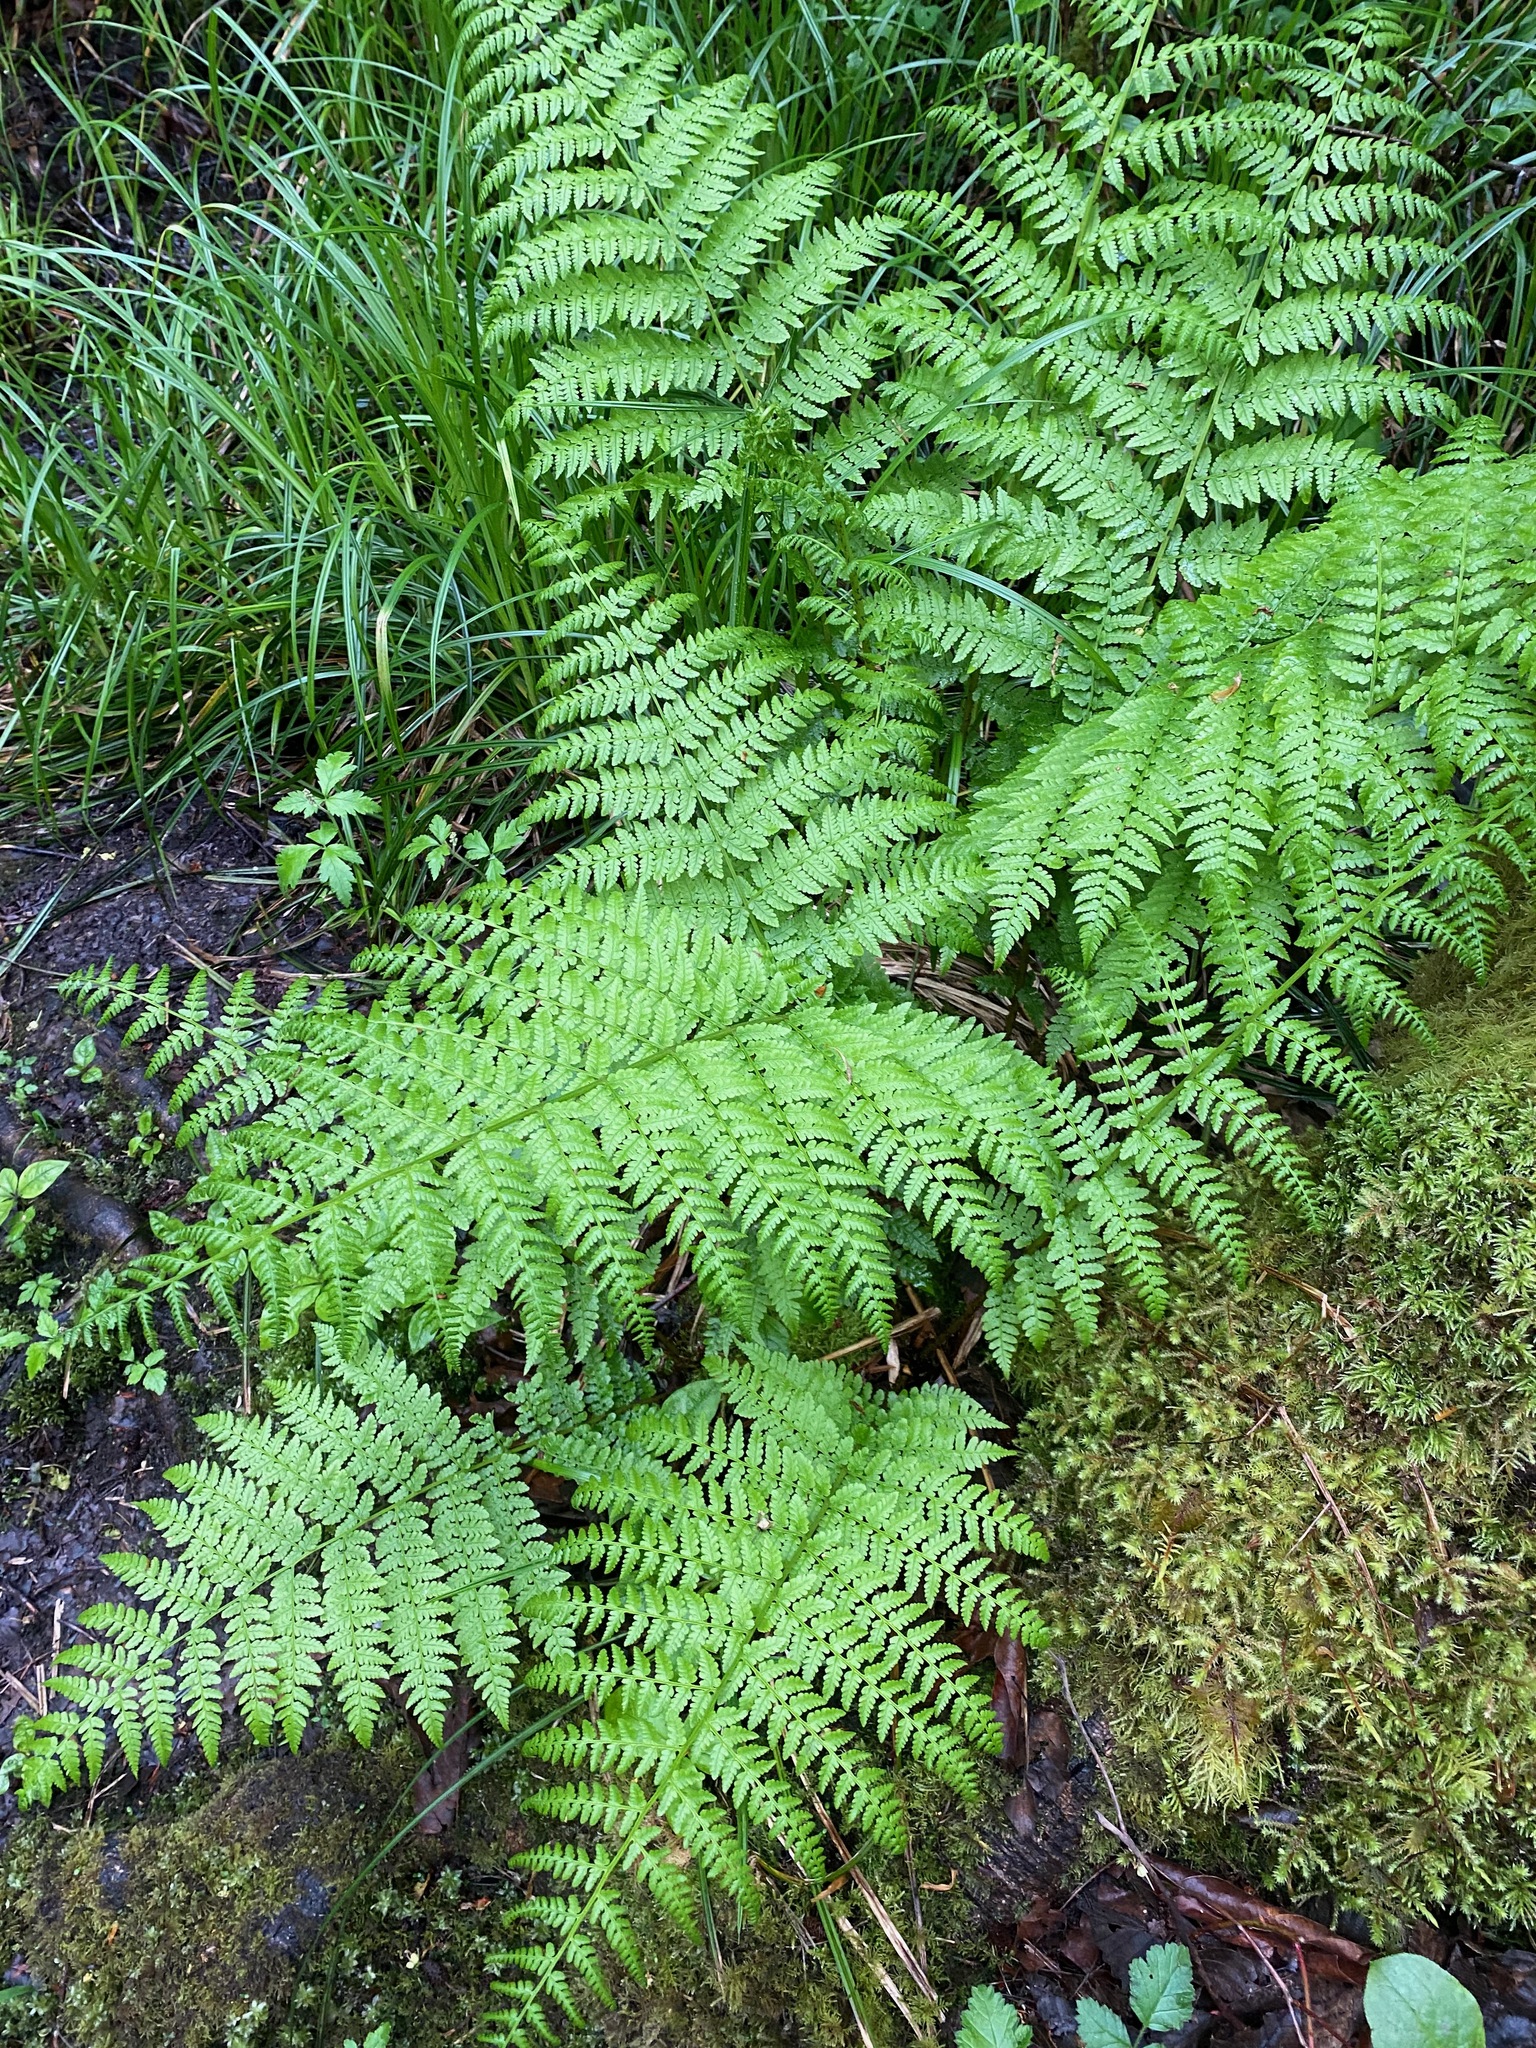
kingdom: Plantae
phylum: Tracheophyta
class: Polypodiopsida
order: Polypodiales
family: Athyriaceae
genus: Athyrium
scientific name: Athyrium cyclosorum
